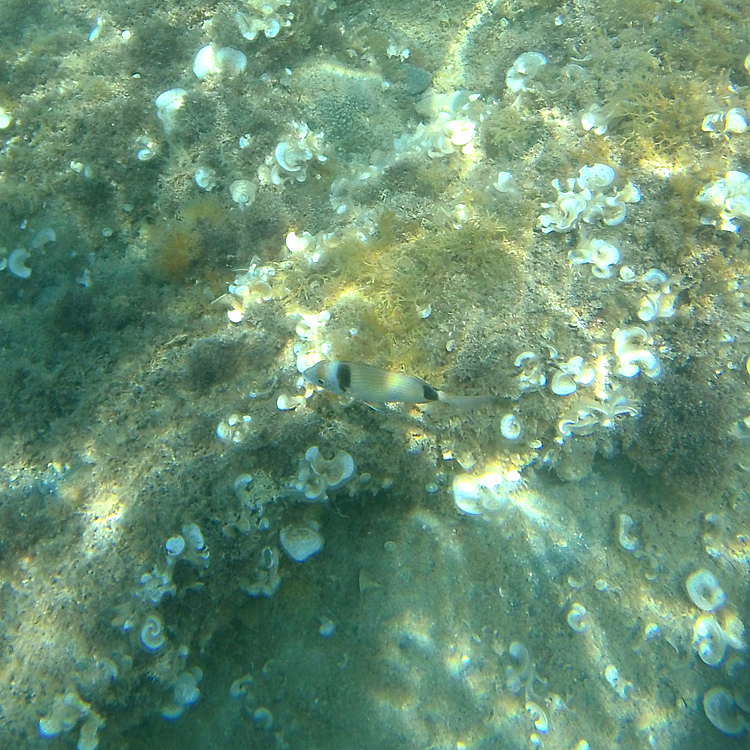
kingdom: Animalia
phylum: Chordata
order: Perciformes
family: Sparidae
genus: Diplodus
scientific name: Diplodus vulgaris
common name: Common two-banded seabream
